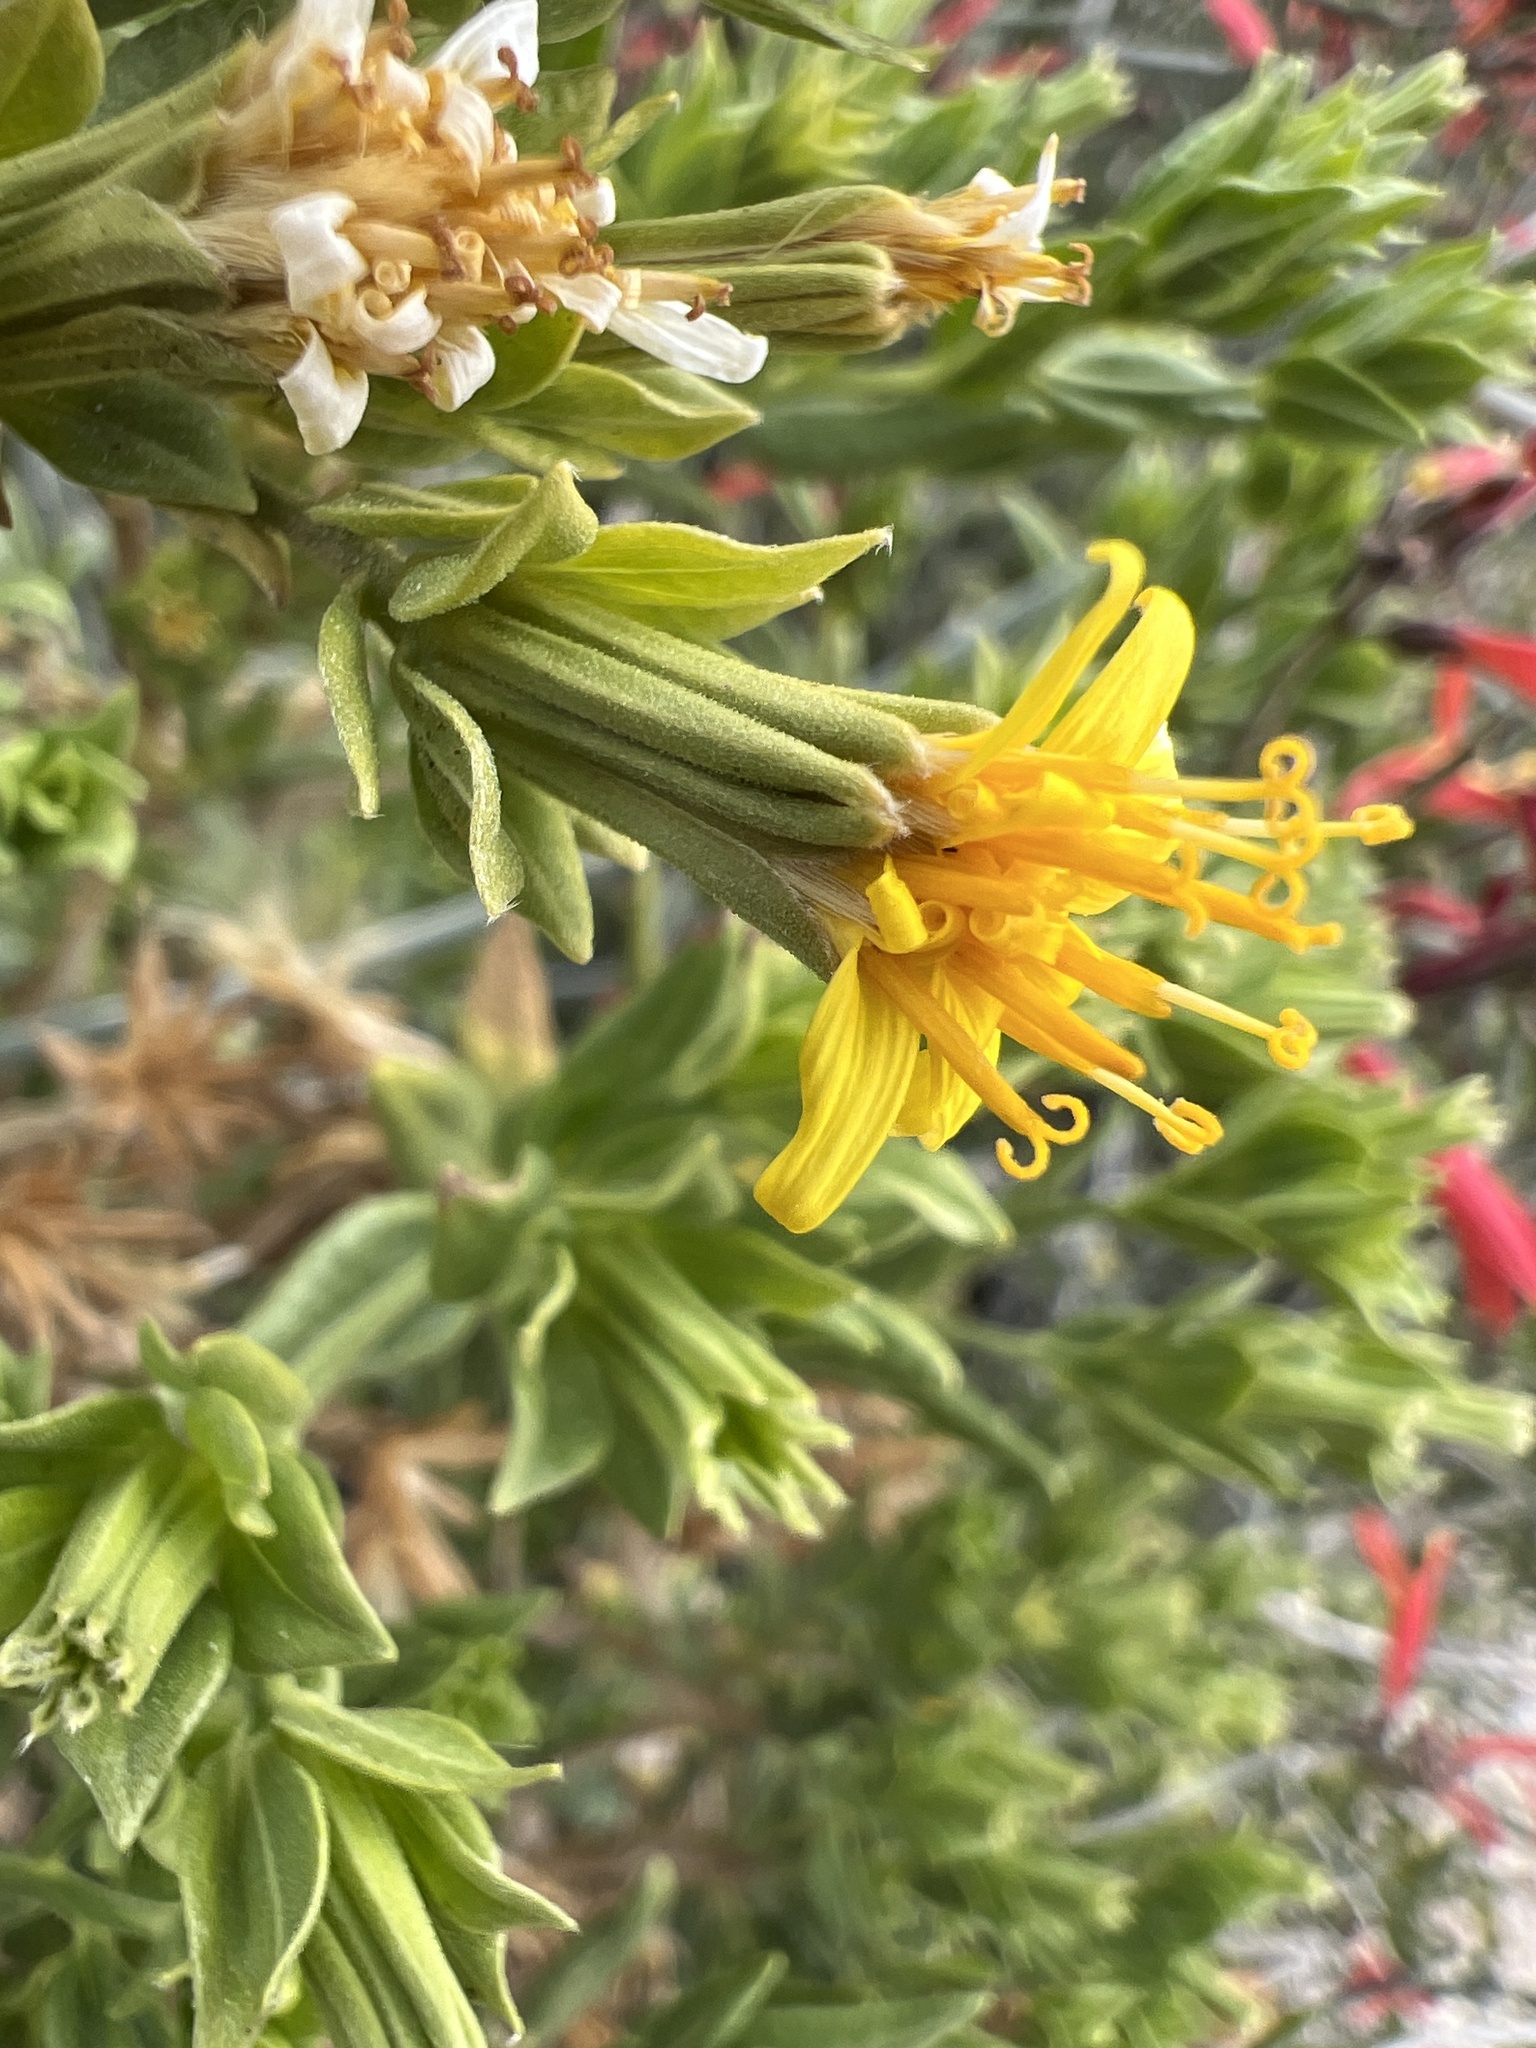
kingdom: Plantae
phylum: Tracheophyta
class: Magnoliopsida
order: Asterales
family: Asteraceae
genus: Trixis
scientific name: Trixis californica
